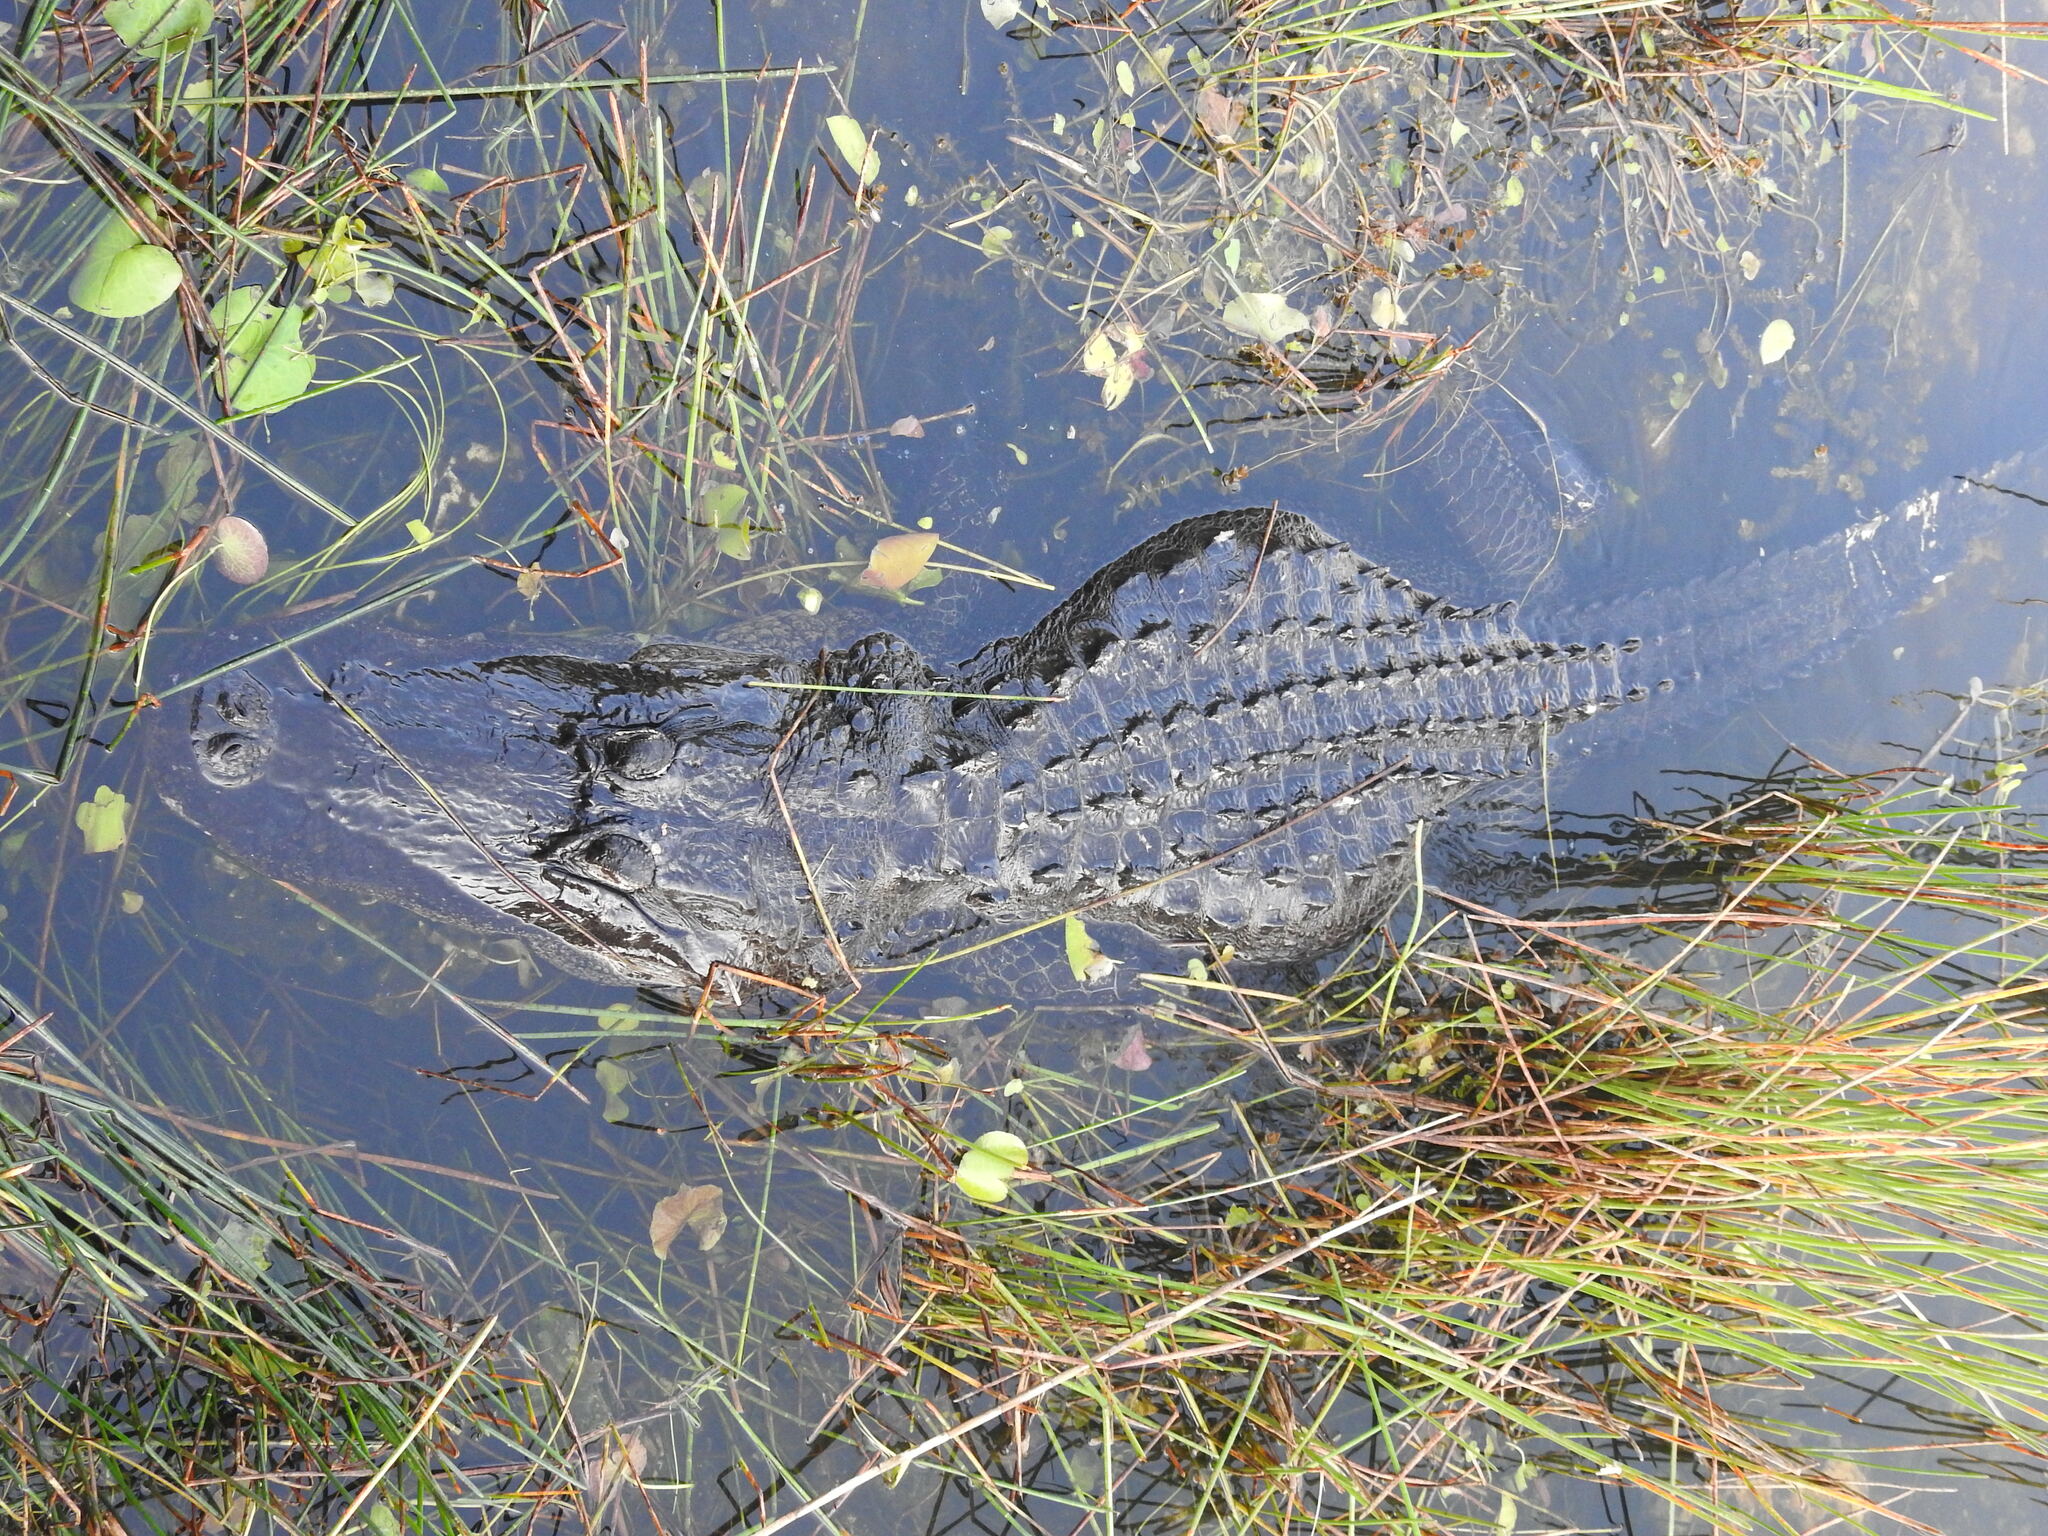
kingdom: Animalia
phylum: Chordata
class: Crocodylia
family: Alligatoridae
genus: Alligator
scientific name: Alligator mississippiensis
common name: American alligator
